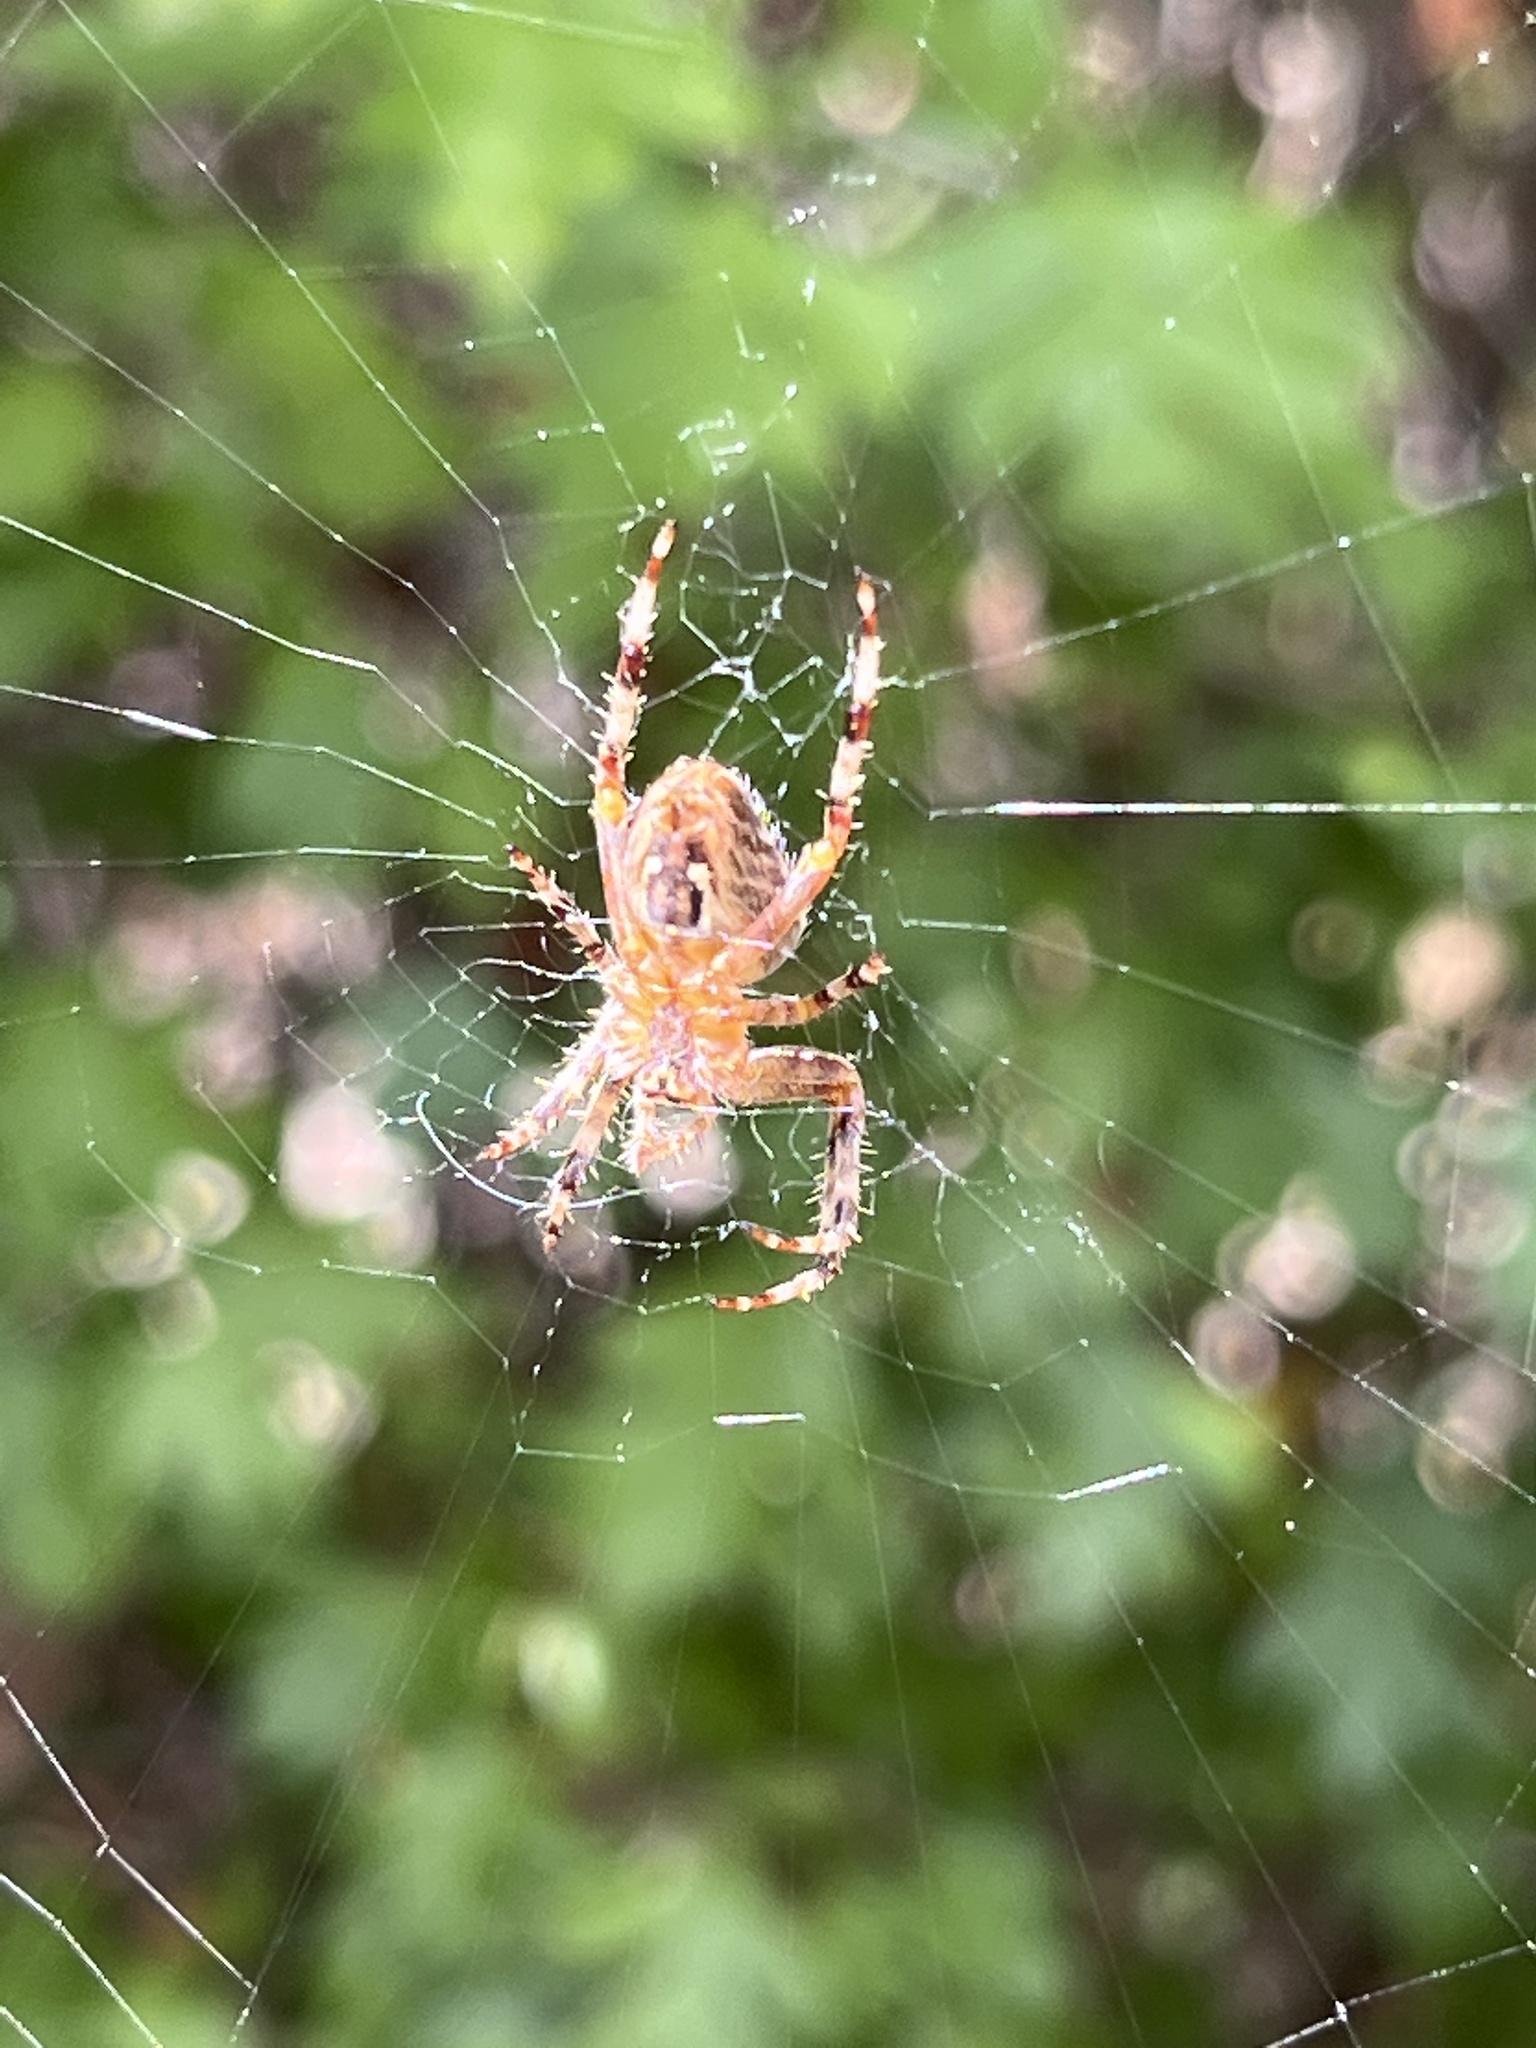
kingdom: Animalia
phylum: Arthropoda
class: Arachnida
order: Araneae
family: Araneidae
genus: Araneus
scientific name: Araneus diadematus
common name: Cross orbweaver
